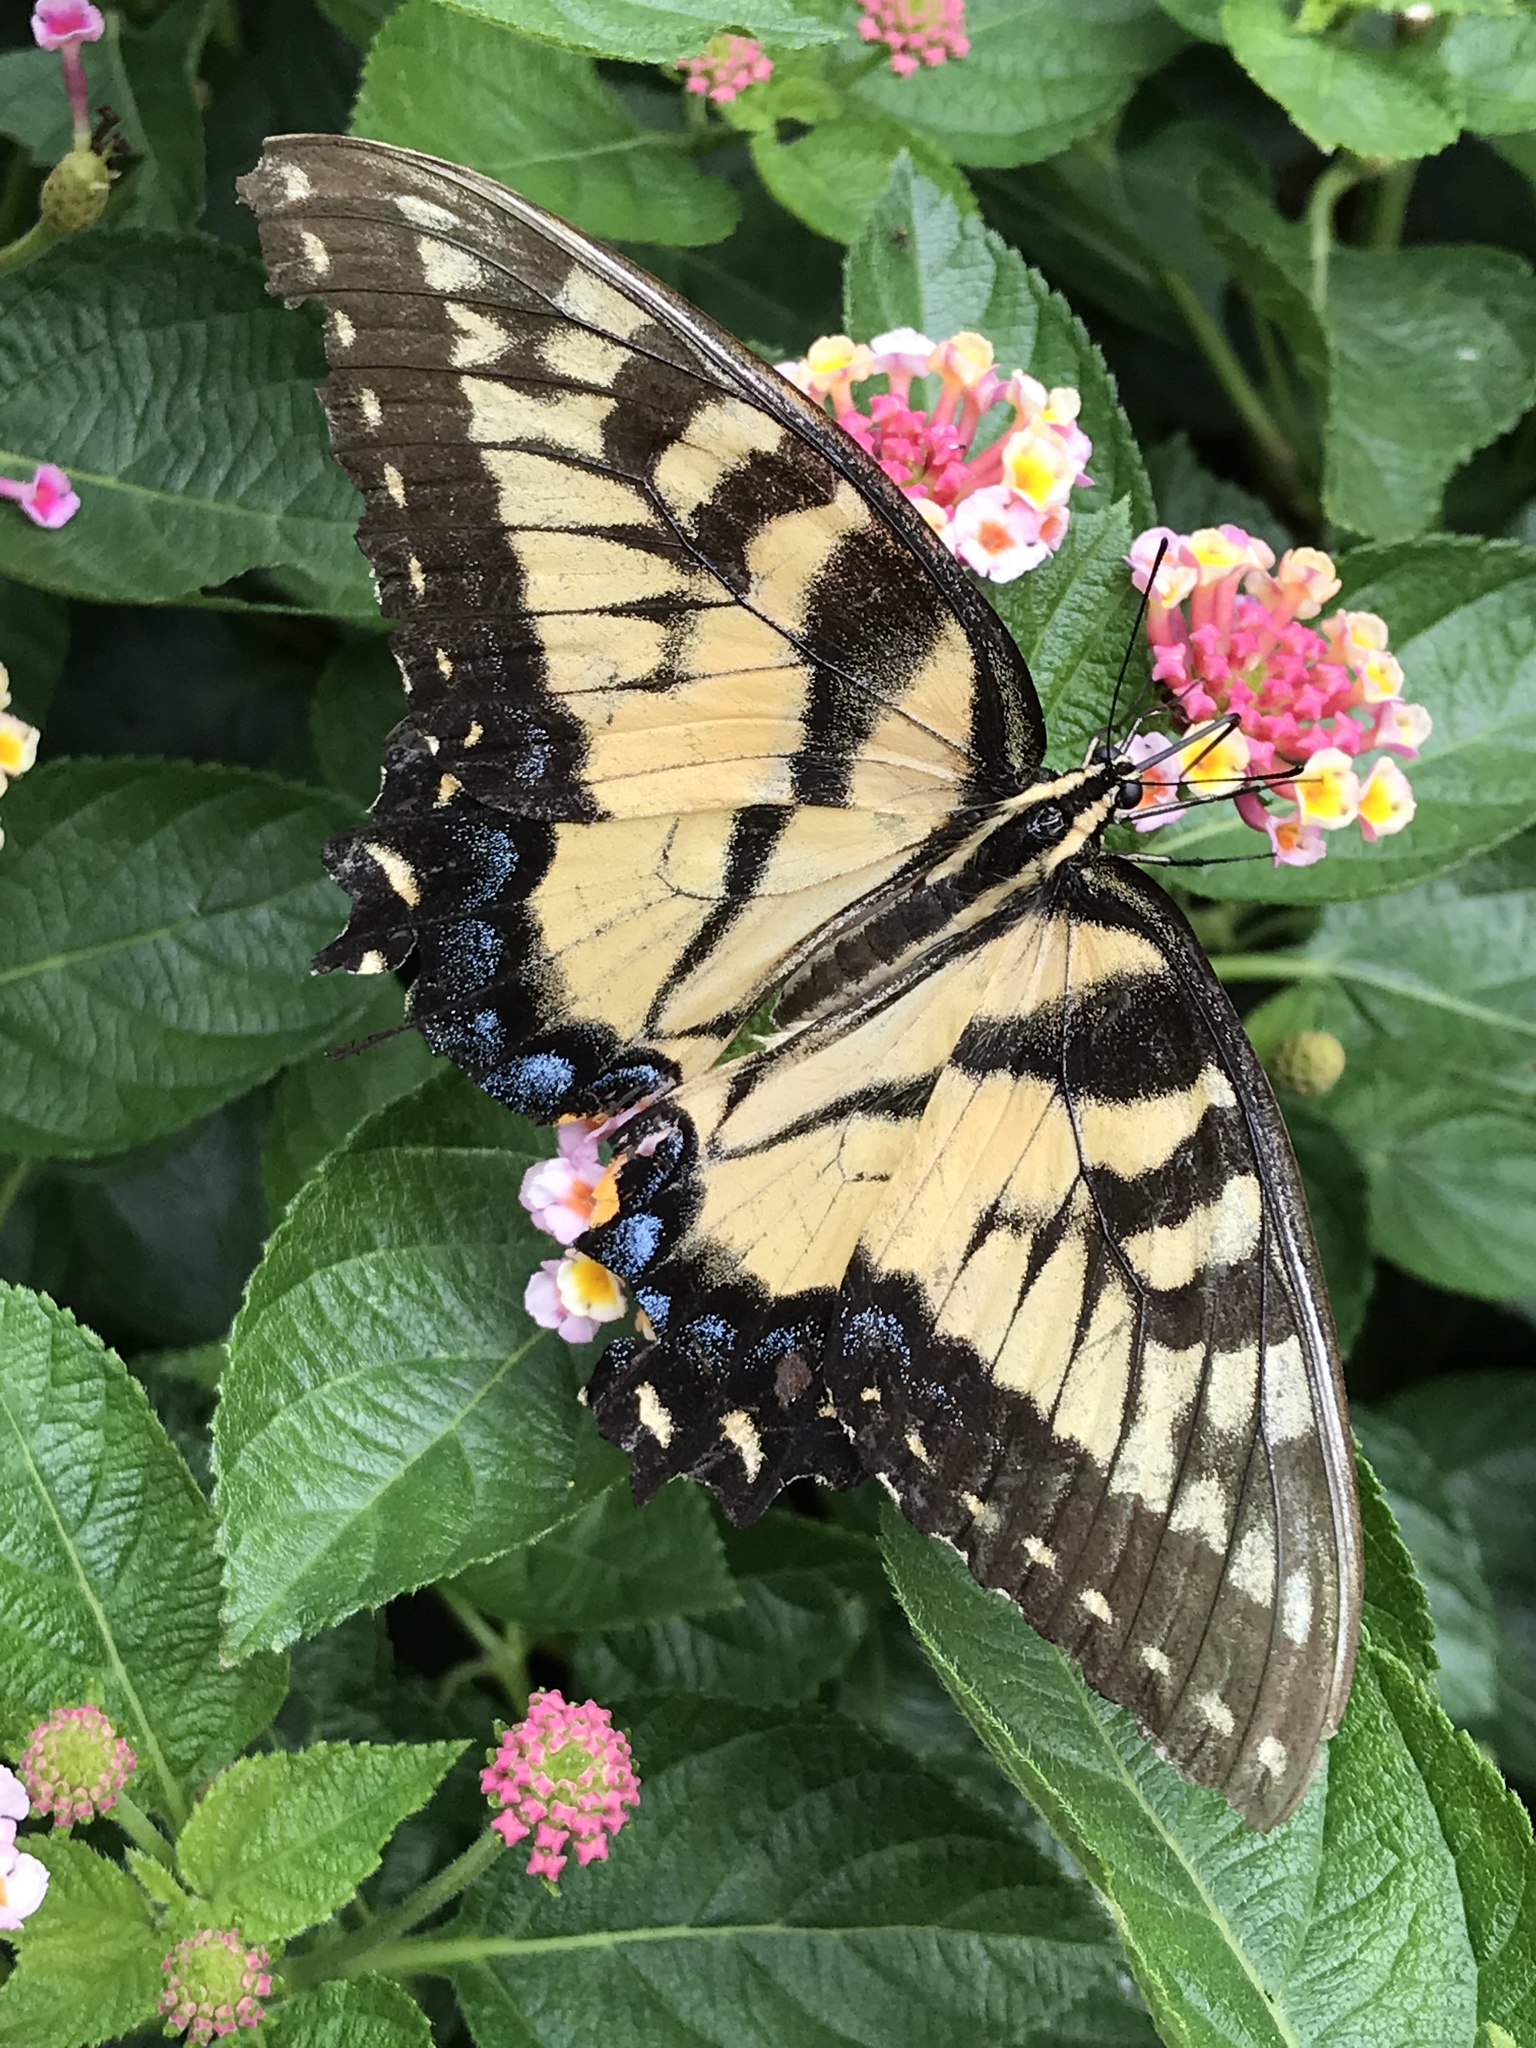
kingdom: Animalia
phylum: Arthropoda
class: Insecta
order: Lepidoptera
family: Papilionidae
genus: Papilio
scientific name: Papilio glaucus
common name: Tiger swallowtail
